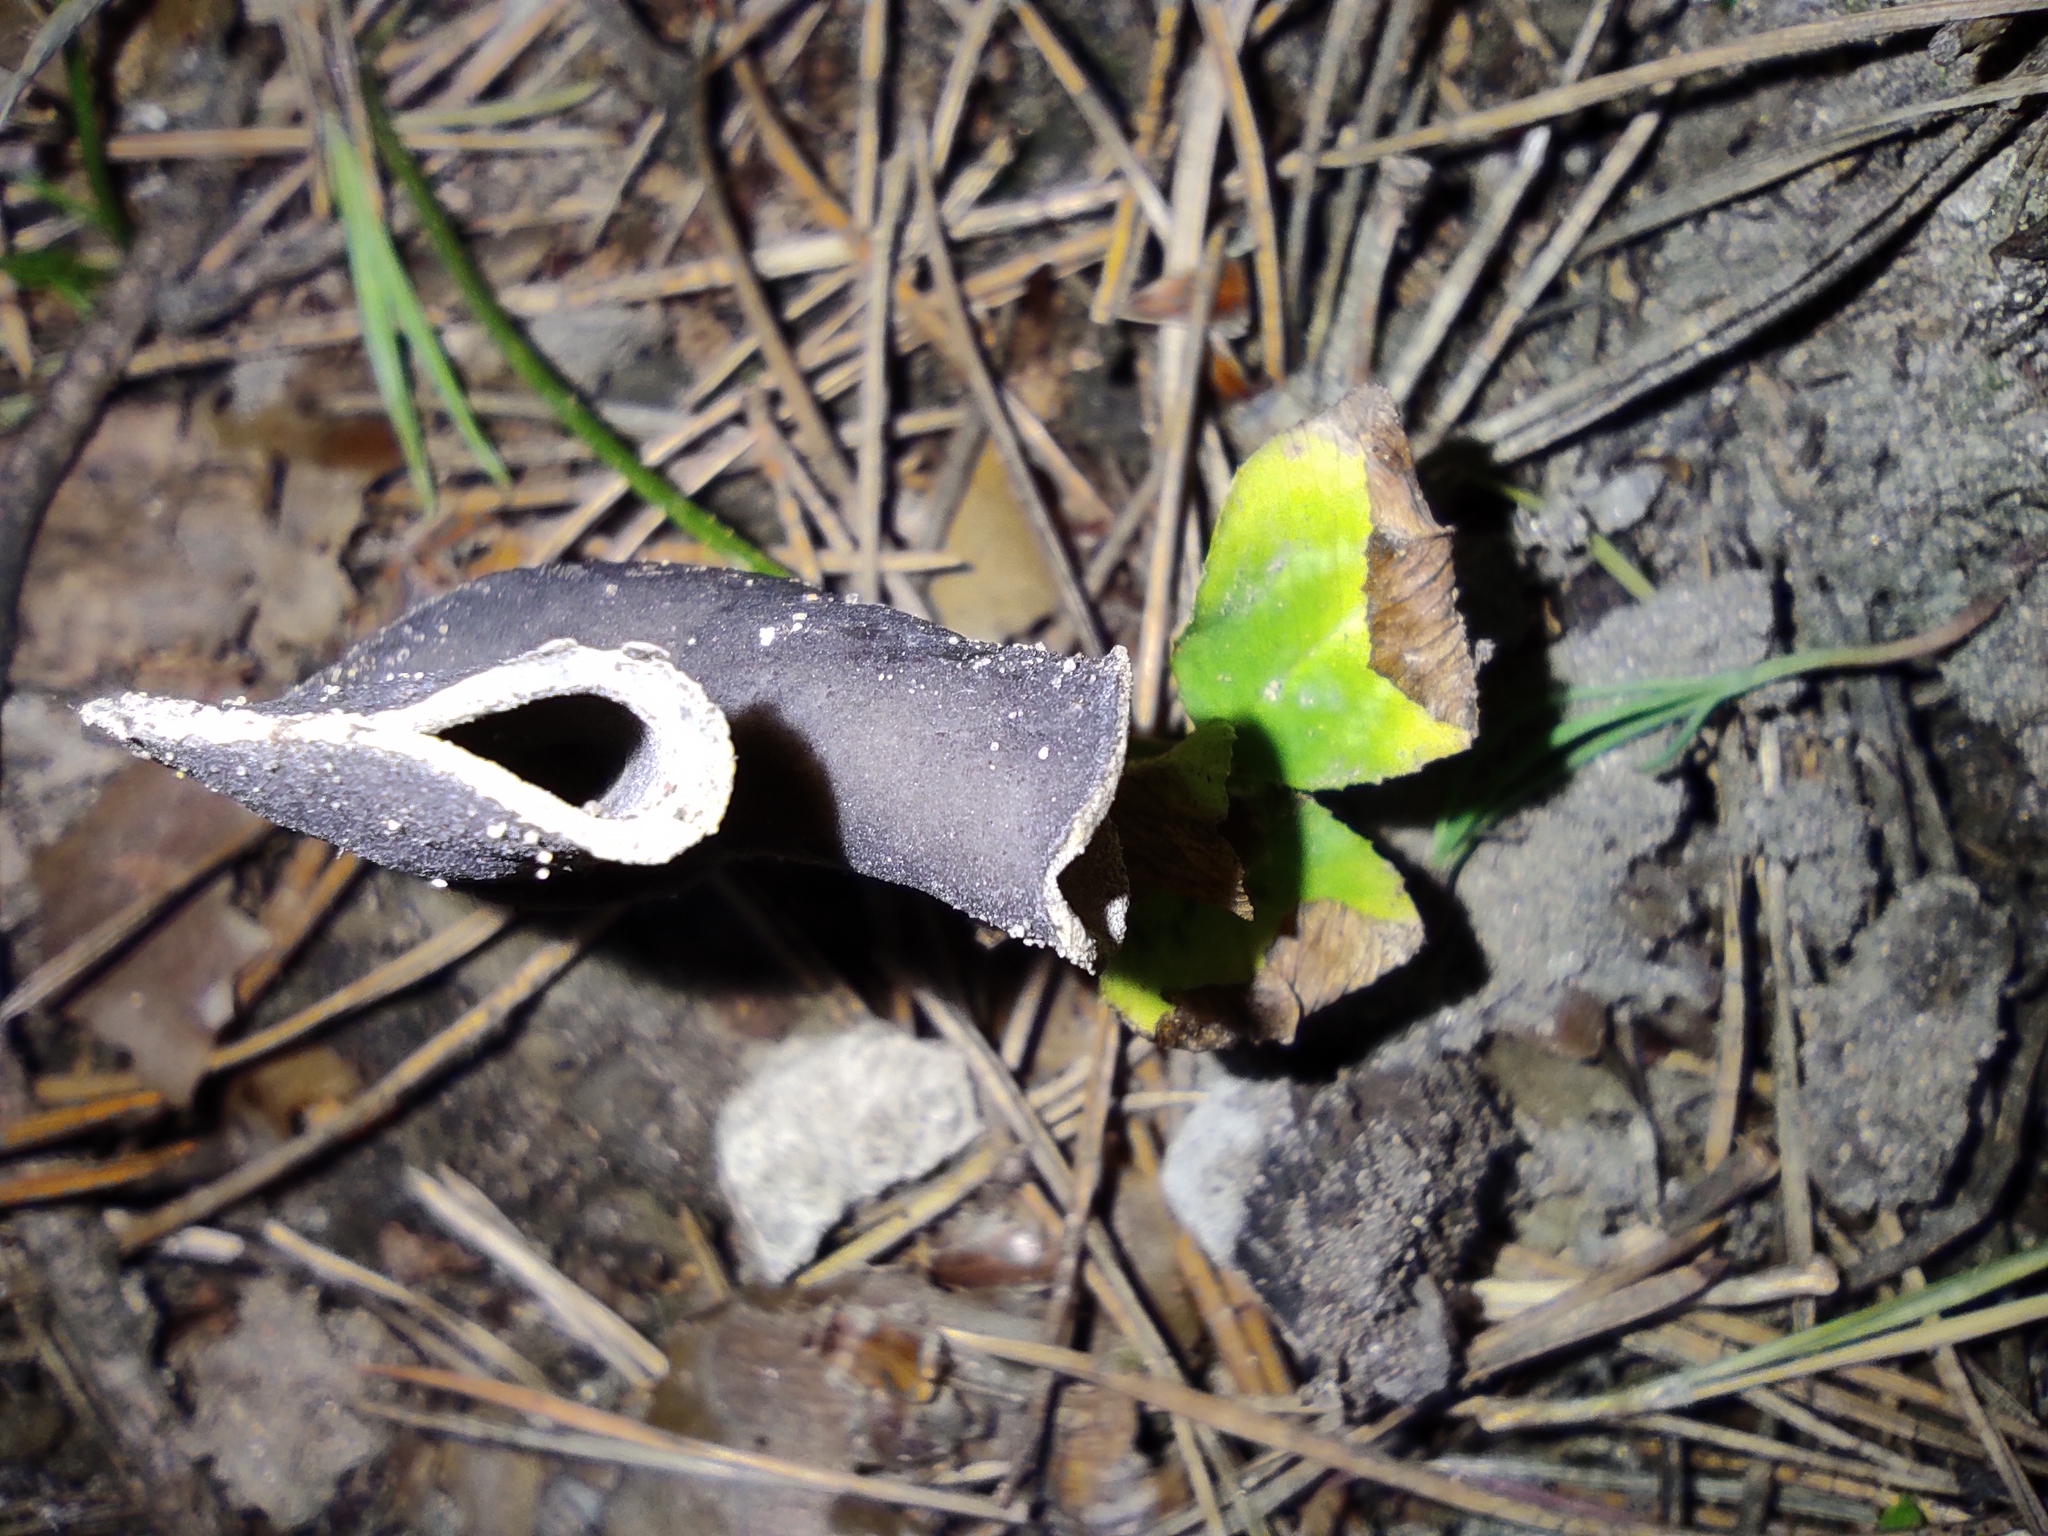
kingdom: Fungi
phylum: Ascomycota
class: Pezizomycetes
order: Pezizales
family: Helvellaceae
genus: Helvella
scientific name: Helvella lacunosa
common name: Elfin saddle
